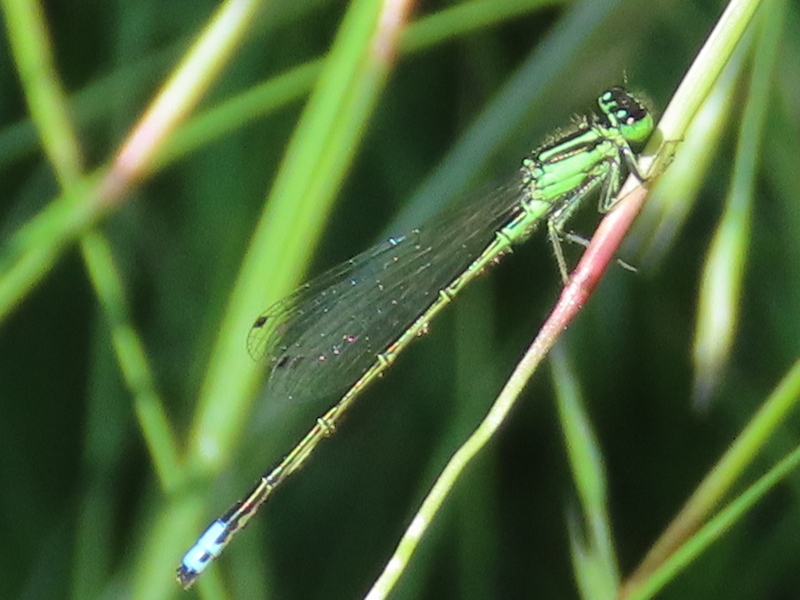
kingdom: Animalia
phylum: Arthropoda
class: Insecta
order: Odonata
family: Coenagrionidae
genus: Ischnura
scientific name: Ischnura verticalis
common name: Eastern forktail
